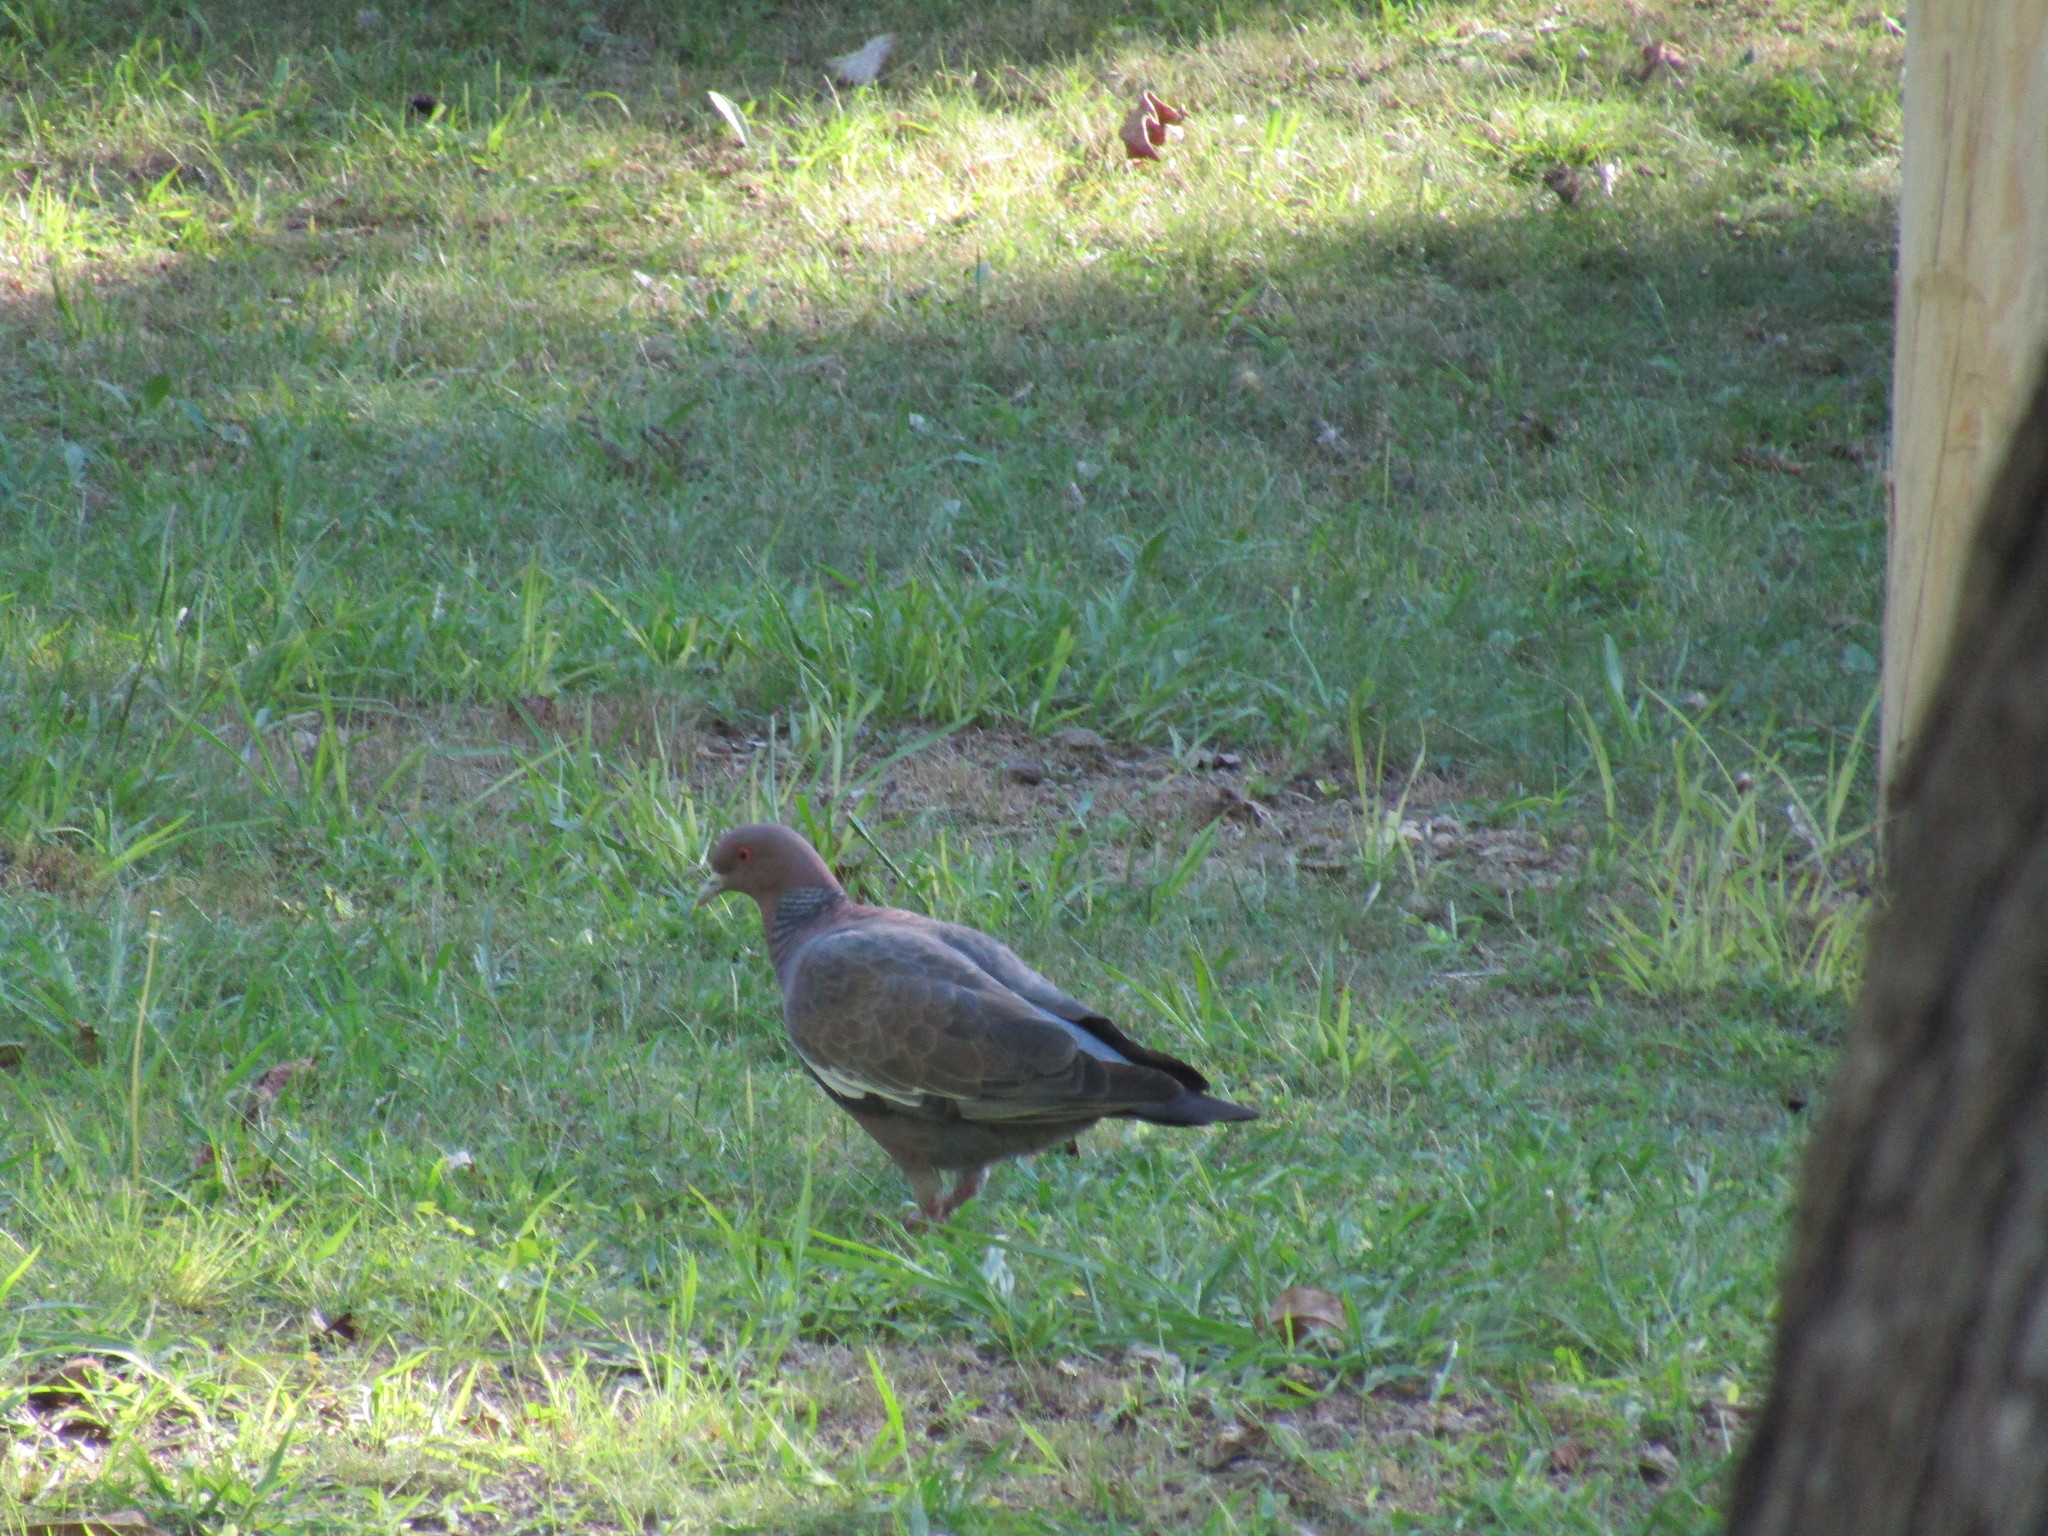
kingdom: Animalia
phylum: Chordata
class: Aves
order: Columbiformes
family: Columbidae
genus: Patagioenas
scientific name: Patagioenas picazuro
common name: Picazuro pigeon
